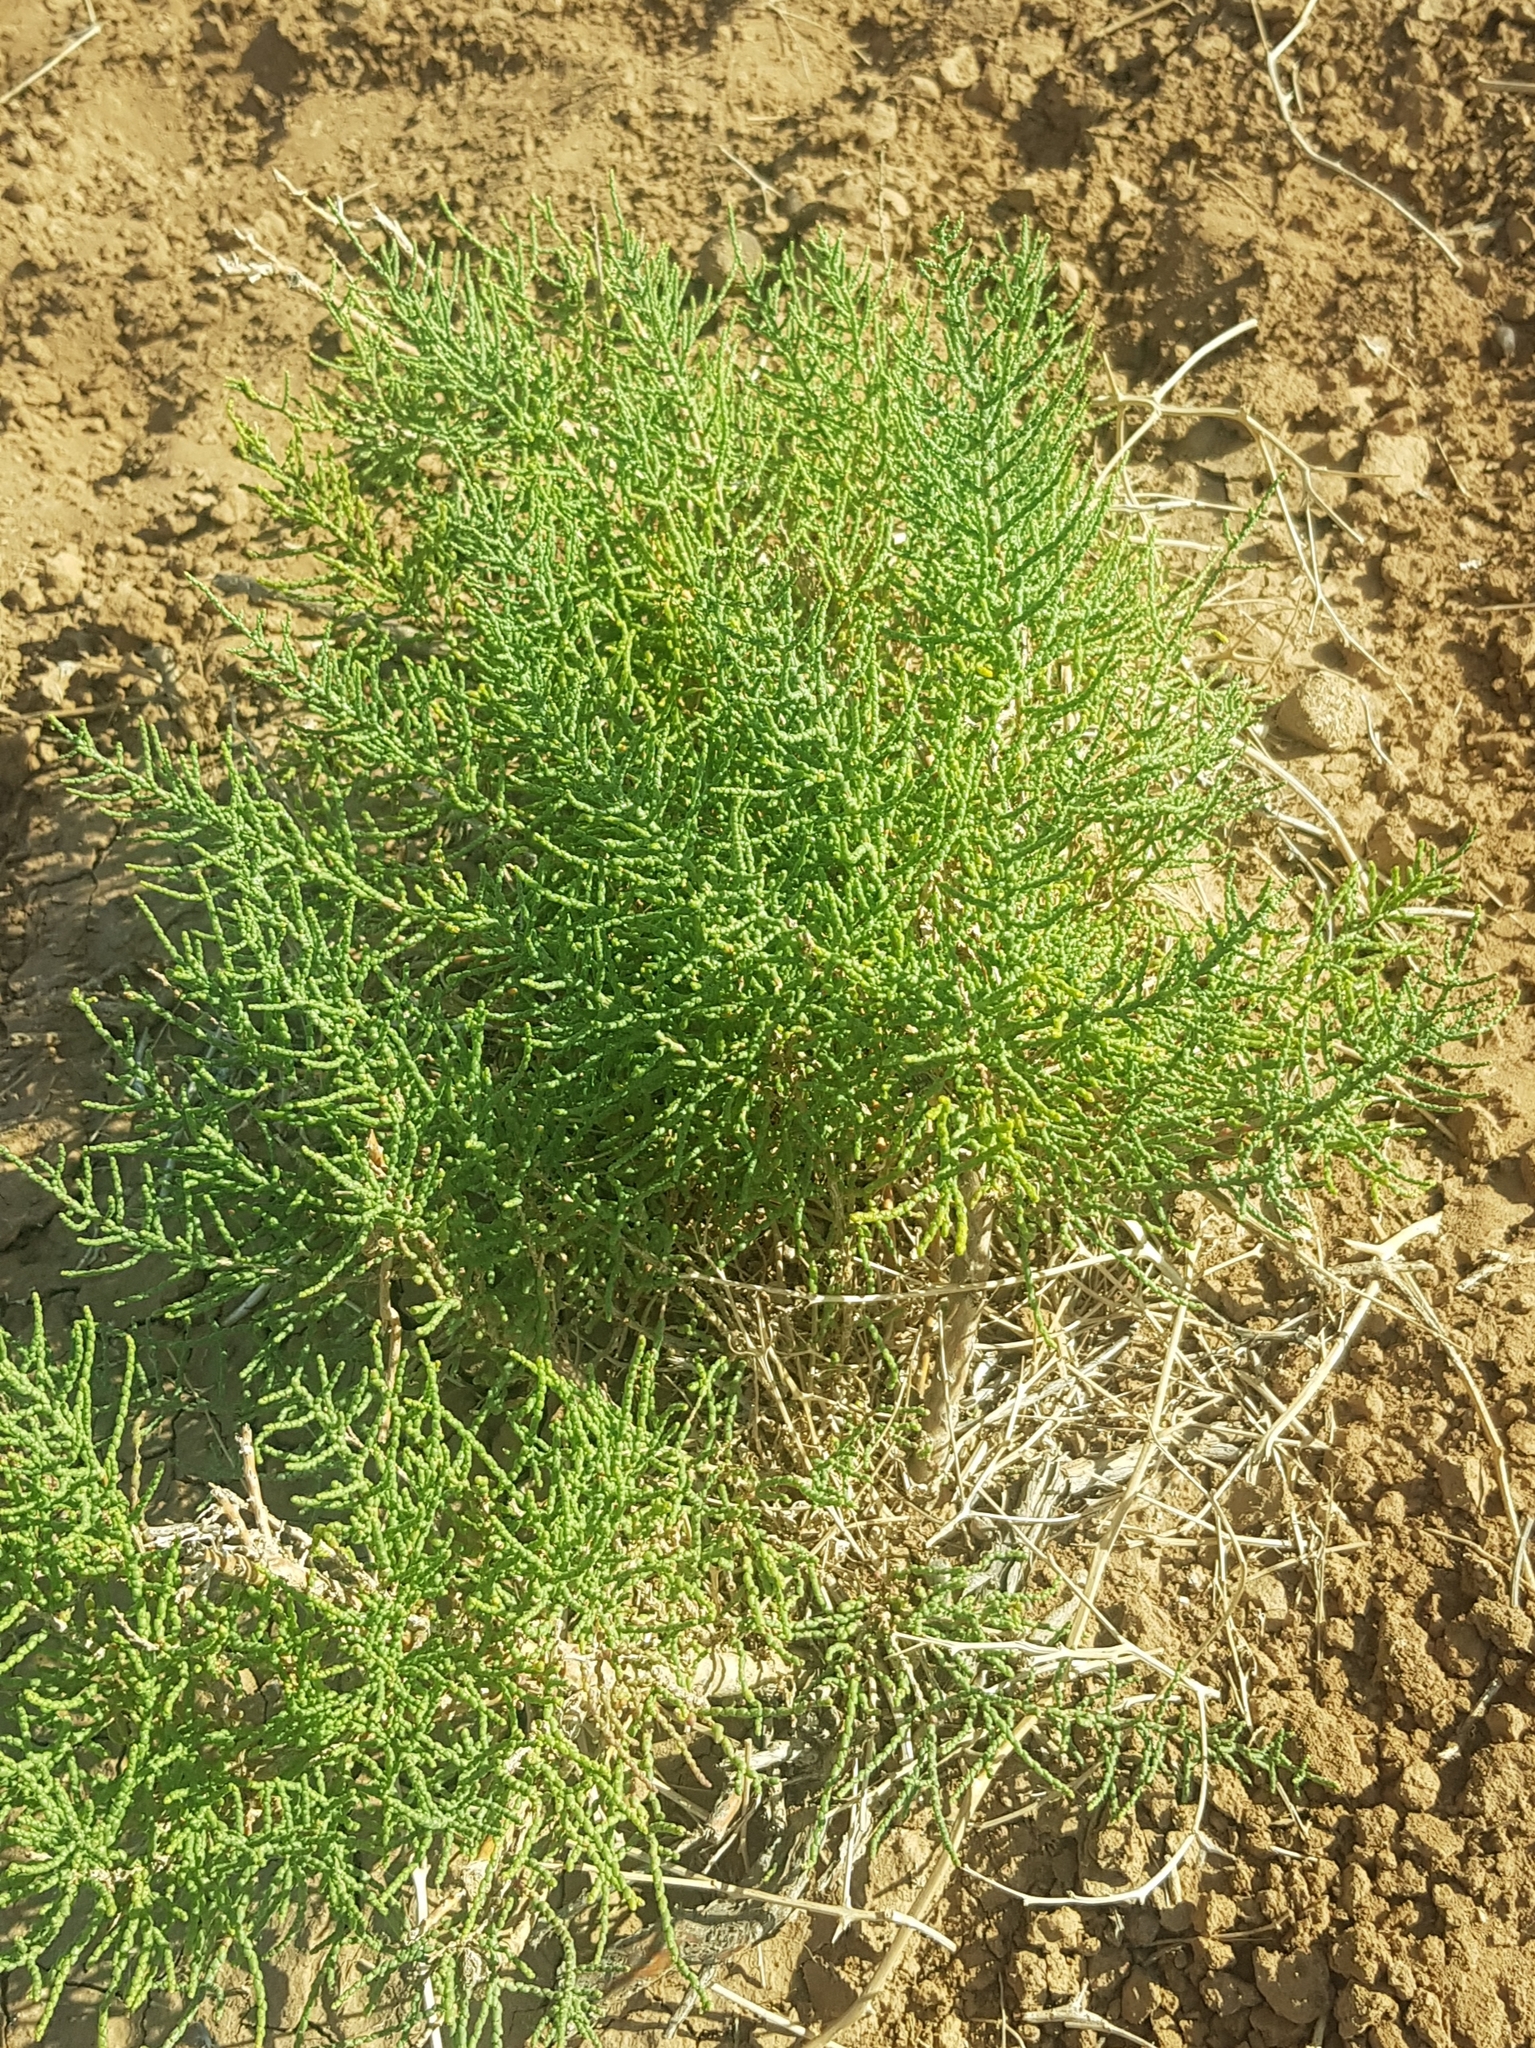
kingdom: Plantae
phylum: Tracheophyta
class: Magnoliopsida
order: Caryophyllales
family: Amaranthaceae
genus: Salicornia
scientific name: Salicornia europaea
